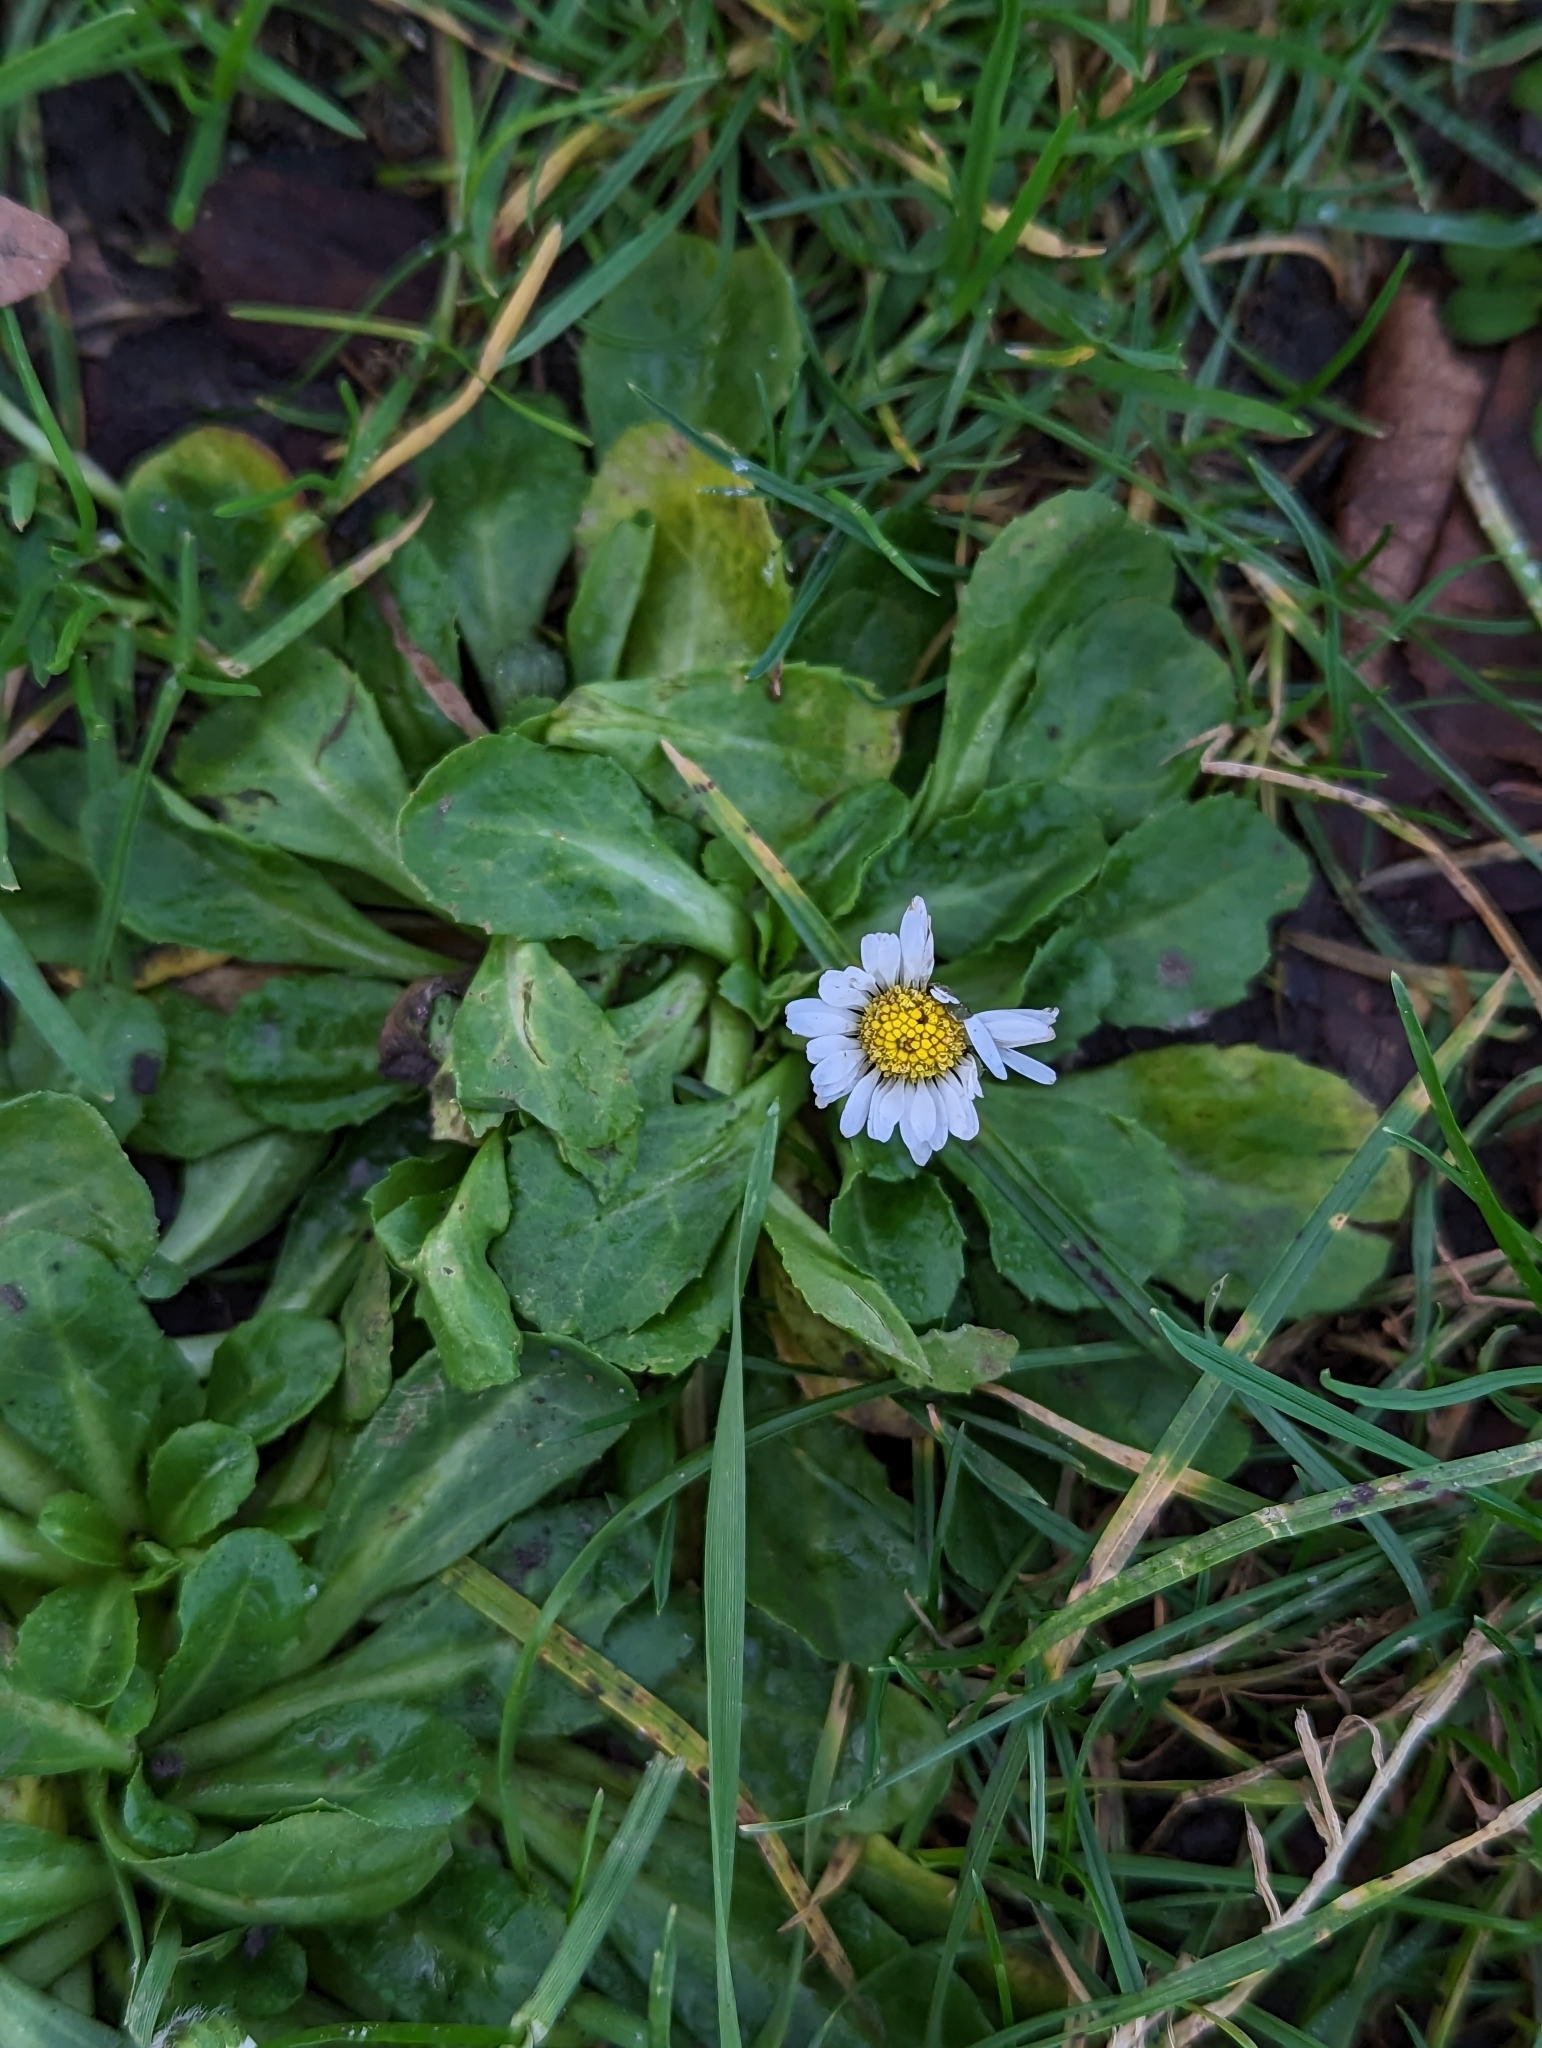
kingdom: Plantae
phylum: Tracheophyta
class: Magnoliopsida
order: Asterales
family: Asteraceae
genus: Bellis
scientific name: Bellis perennis
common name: Lawndaisy
